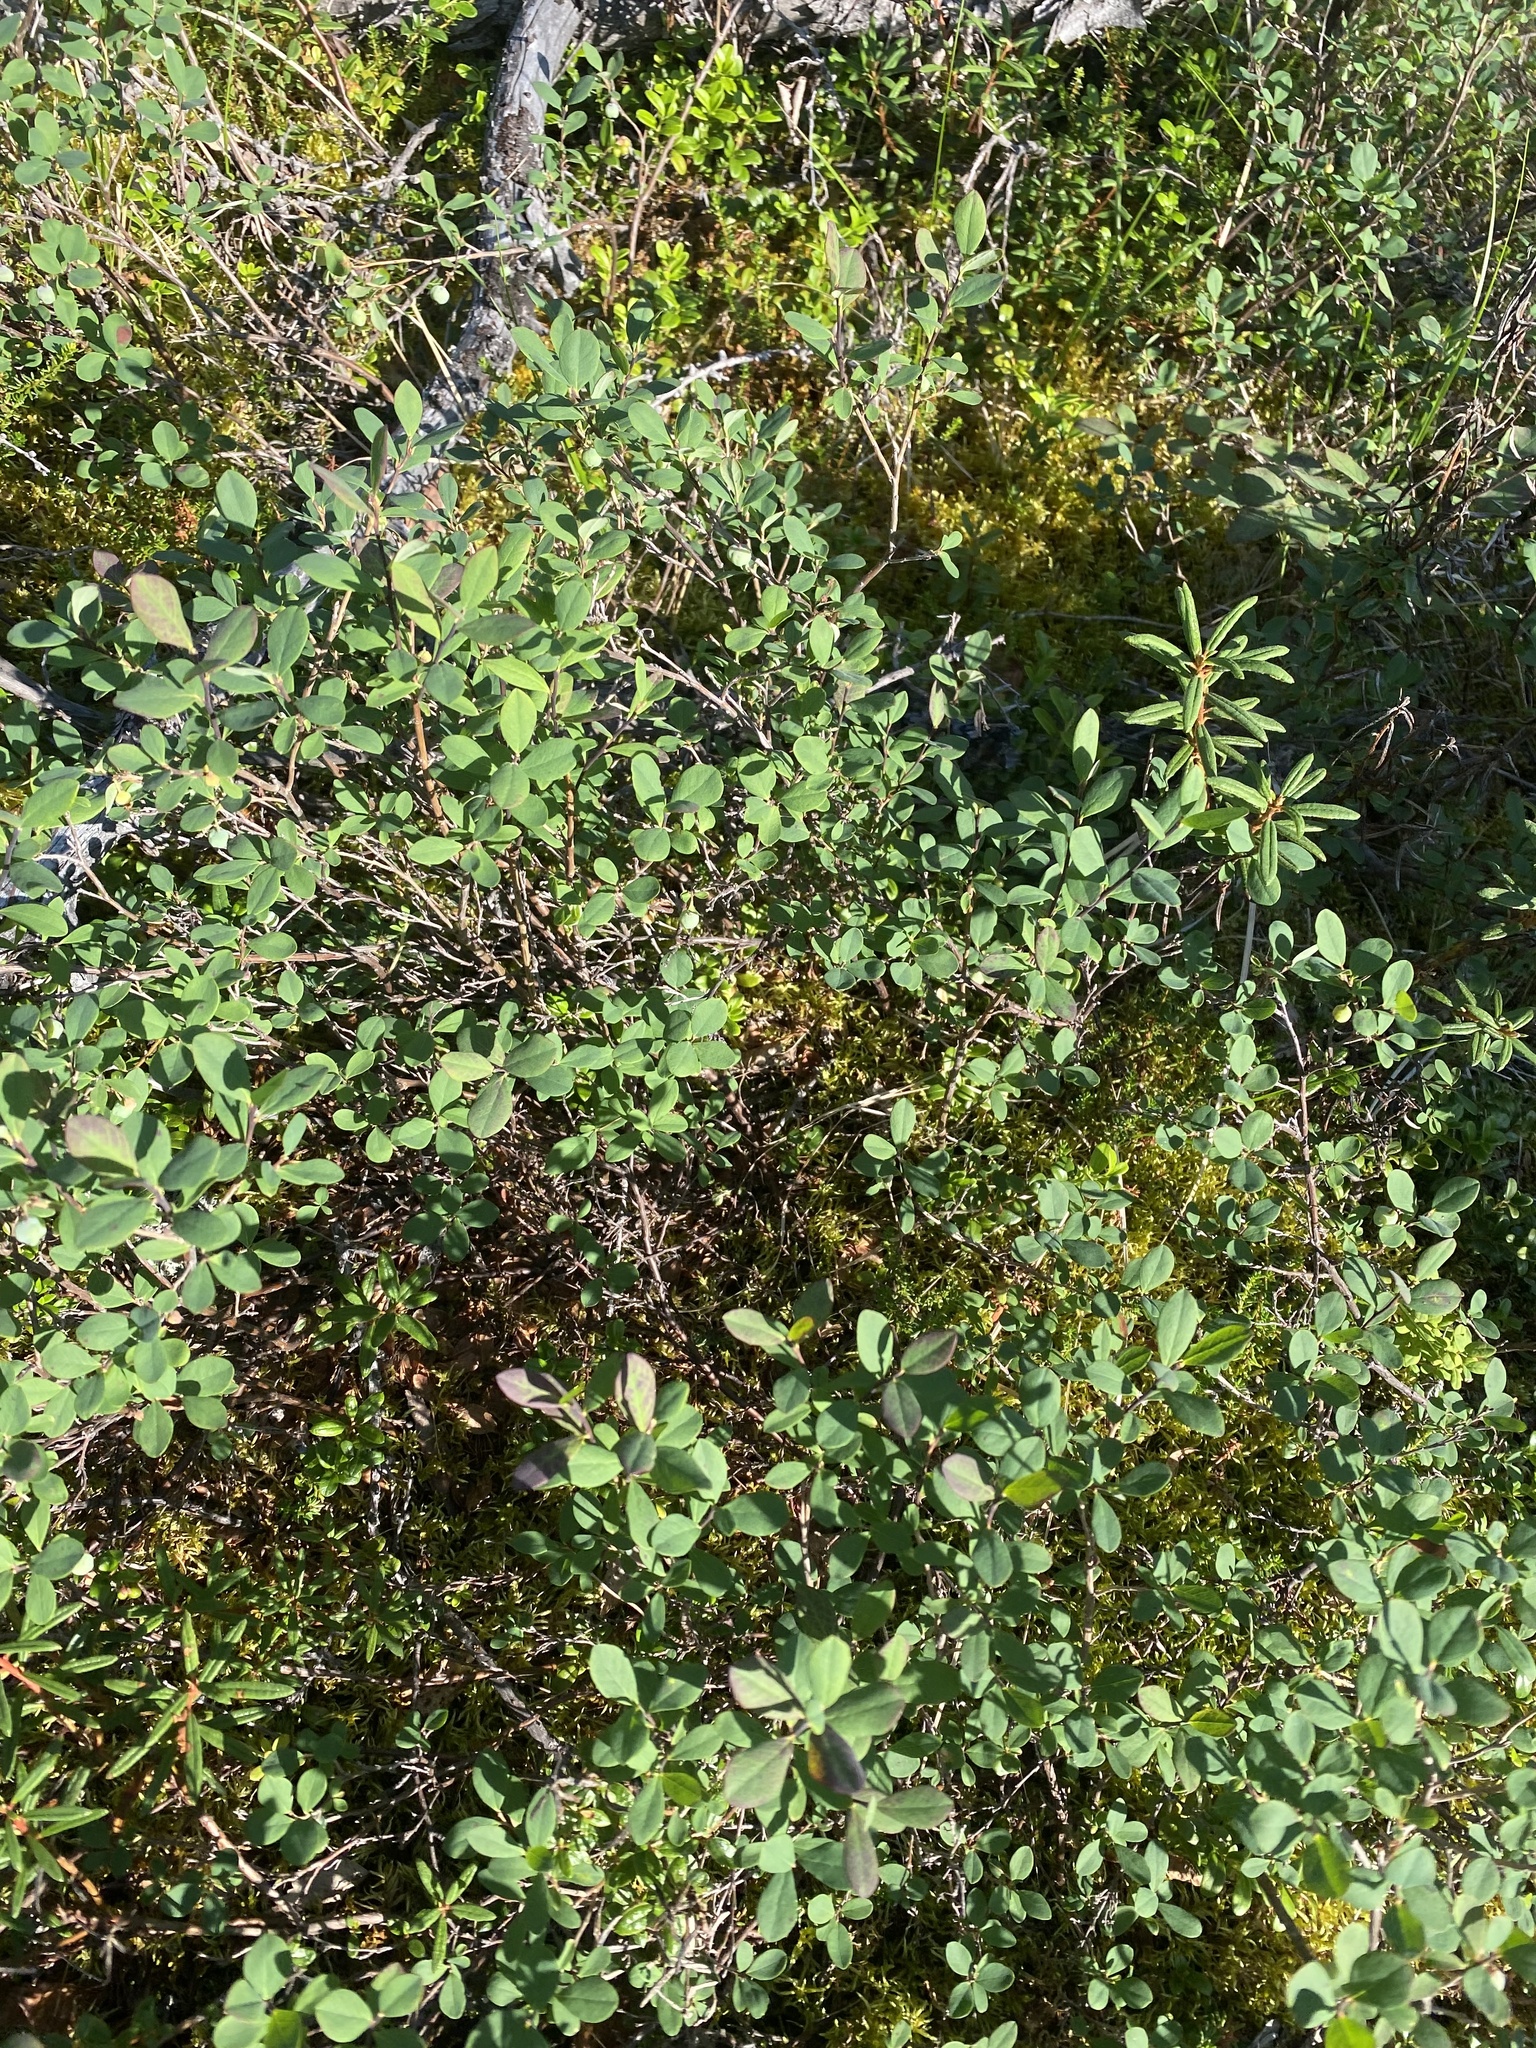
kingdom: Plantae
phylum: Tracheophyta
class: Magnoliopsida
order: Ericales
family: Ericaceae
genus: Vaccinium
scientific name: Vaccinium uliginosum
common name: Bog bilberry
